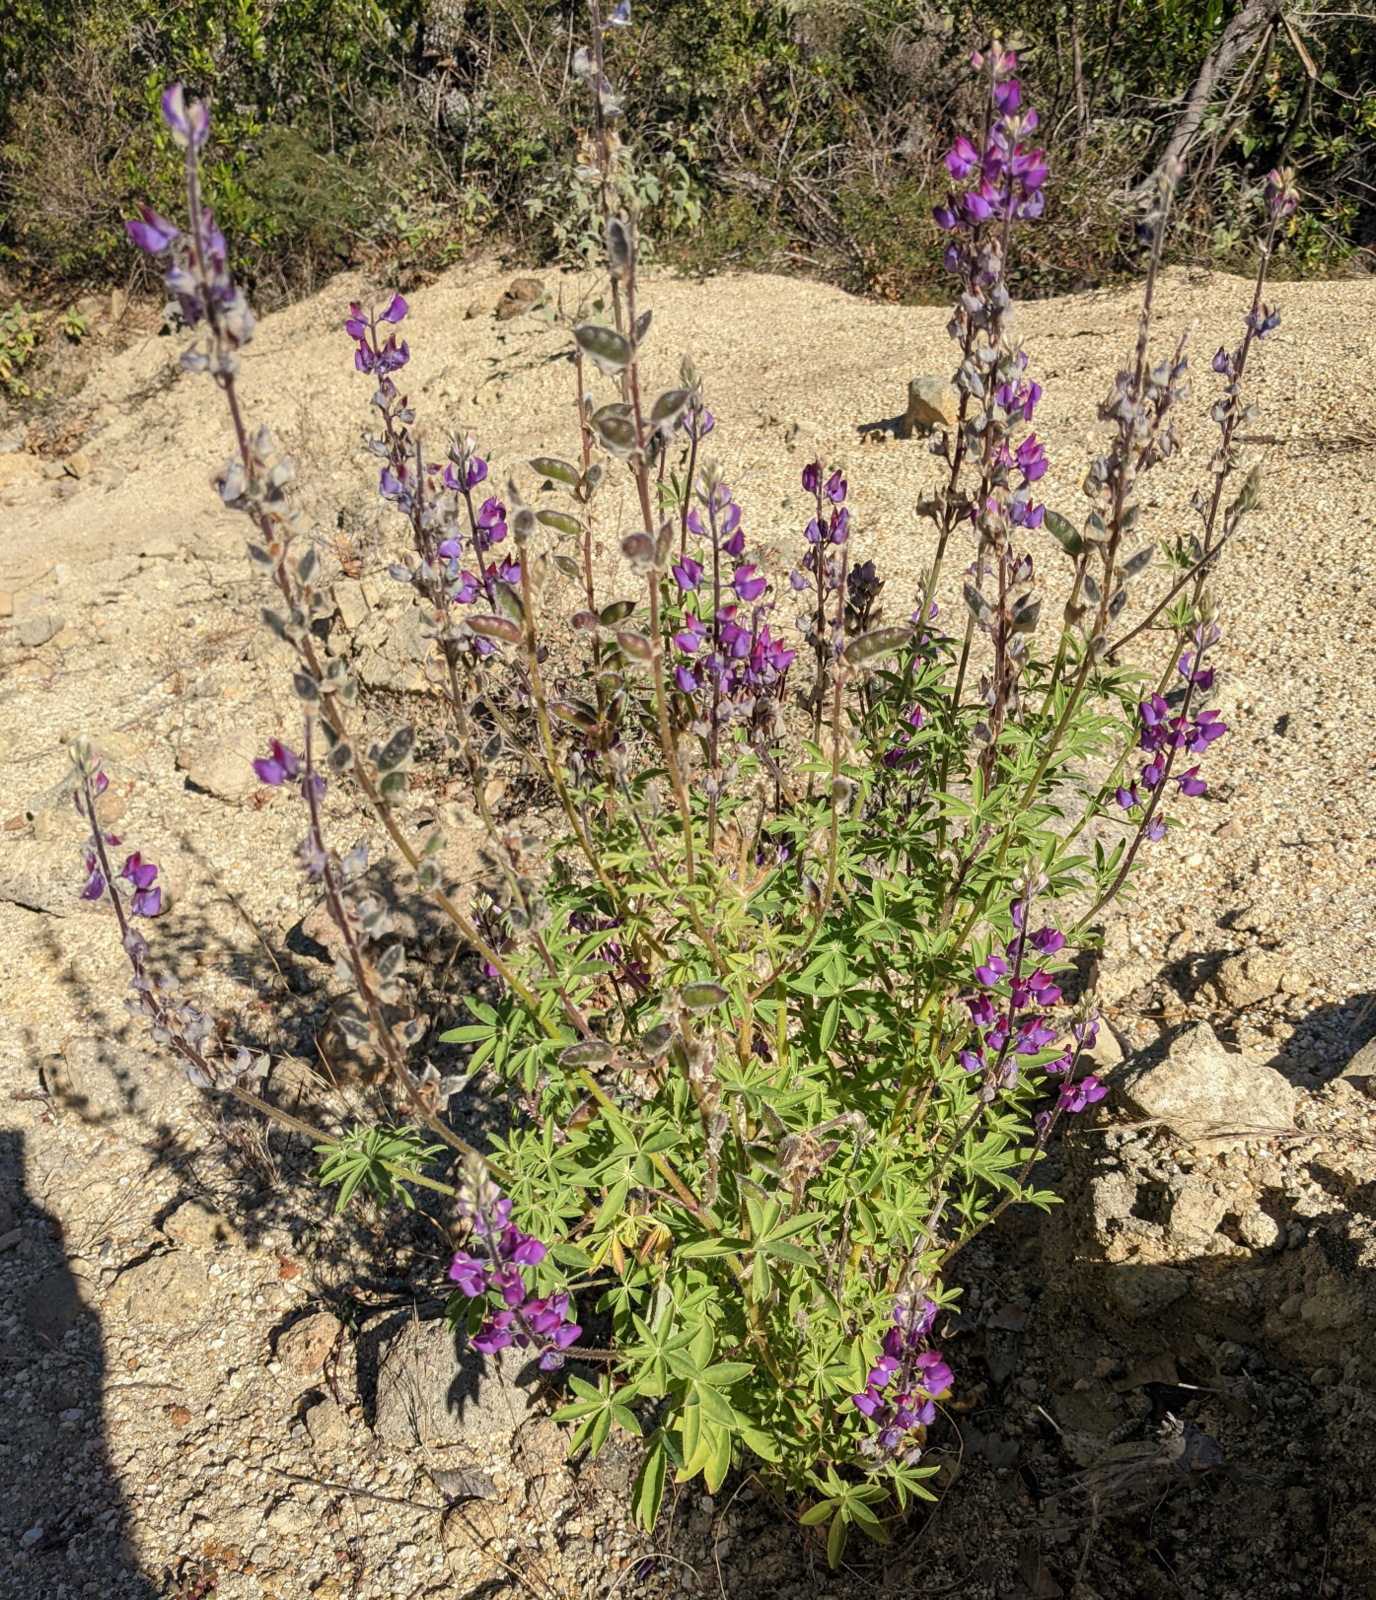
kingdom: Plantae
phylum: Tracheophyta
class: Magnoliopsida
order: Fabales
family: Fabaceae
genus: Lupinus
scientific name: Lupinus arizonicus
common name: Arizona lupine
